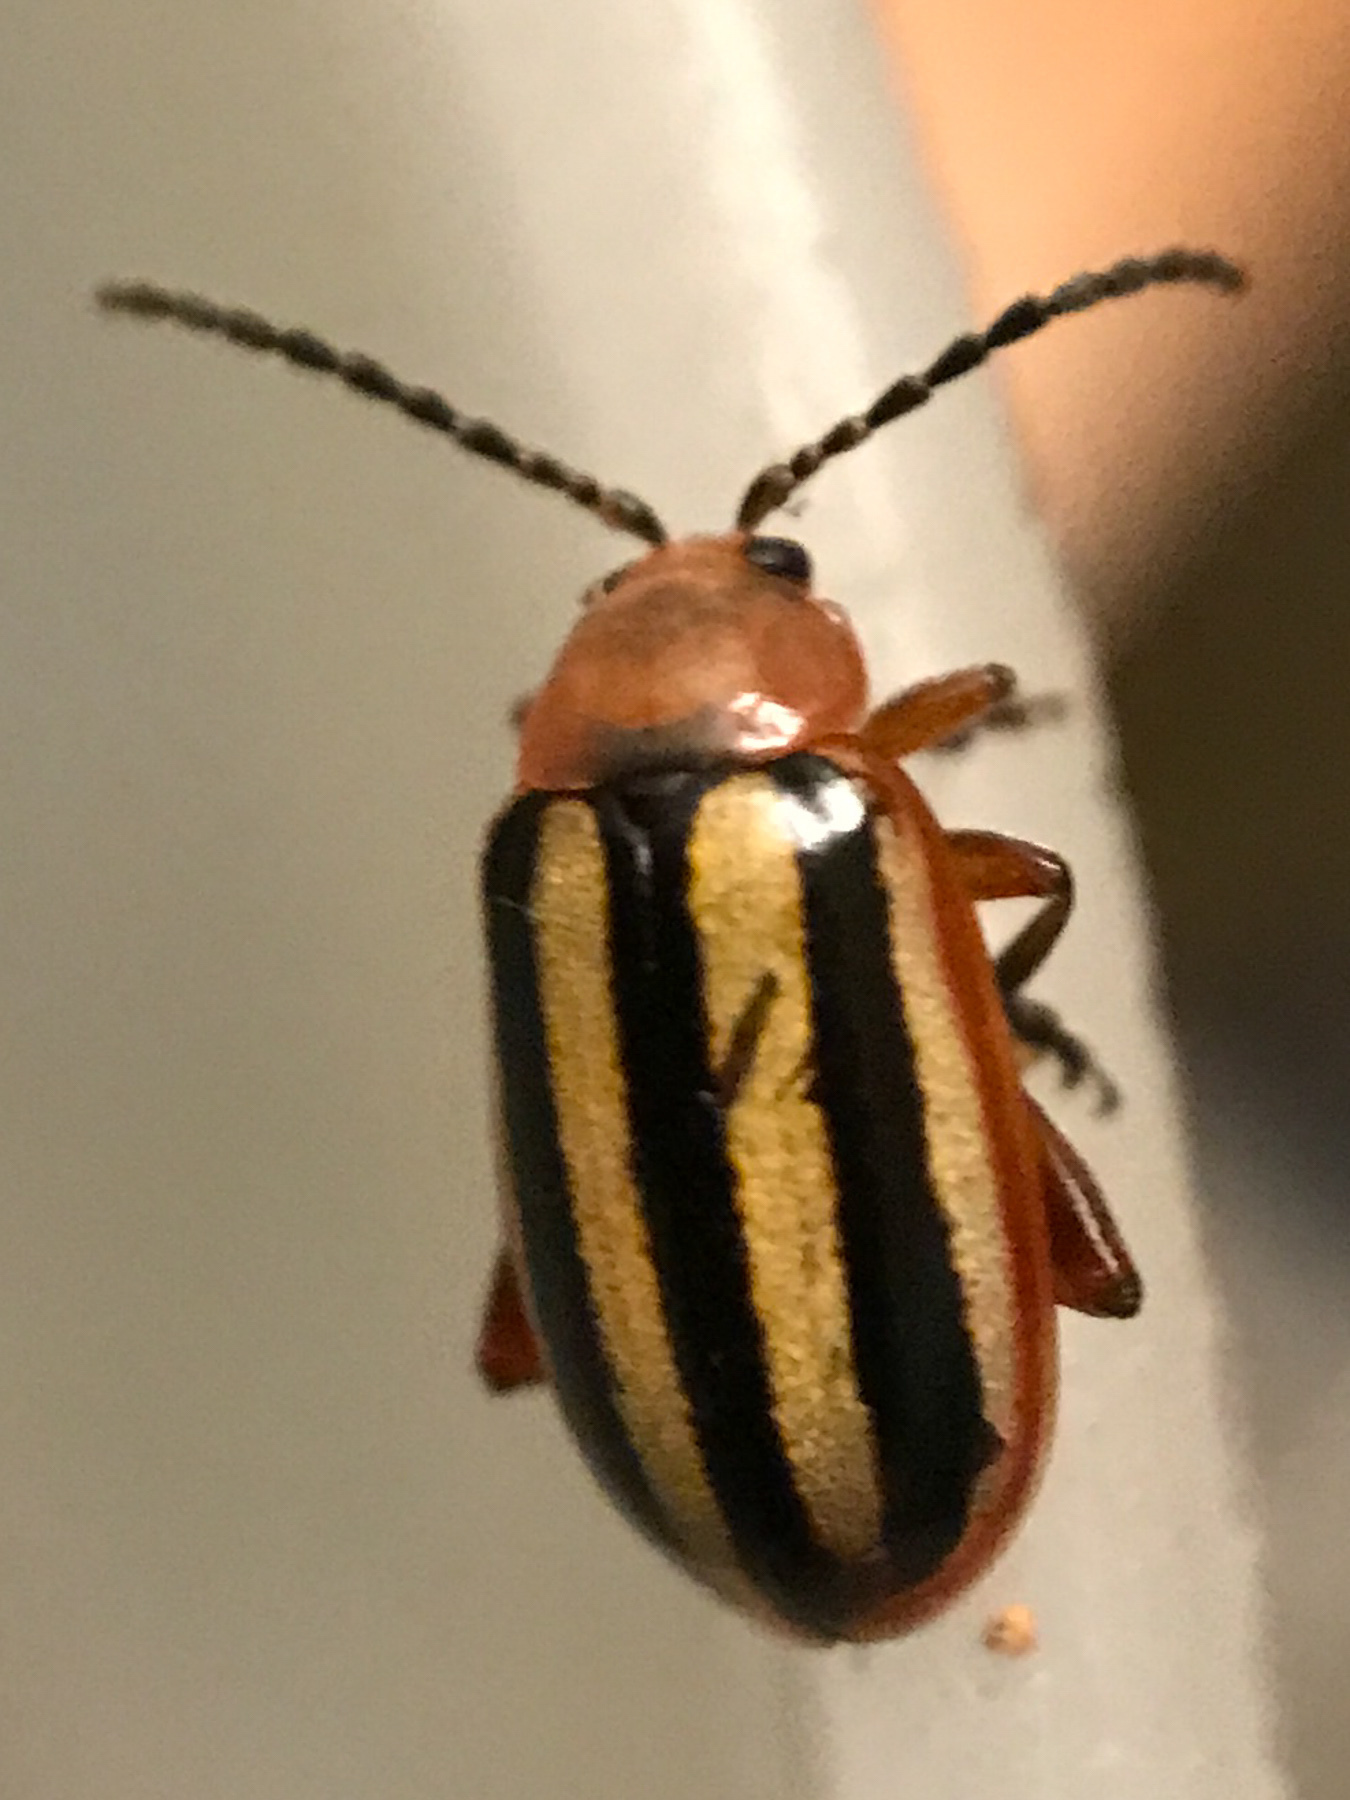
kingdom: Animalia
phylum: Arthropoda
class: Insecta
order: Coleoptera
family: Chrysomelidae
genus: Disonycha
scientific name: Disonycha leptolineata
